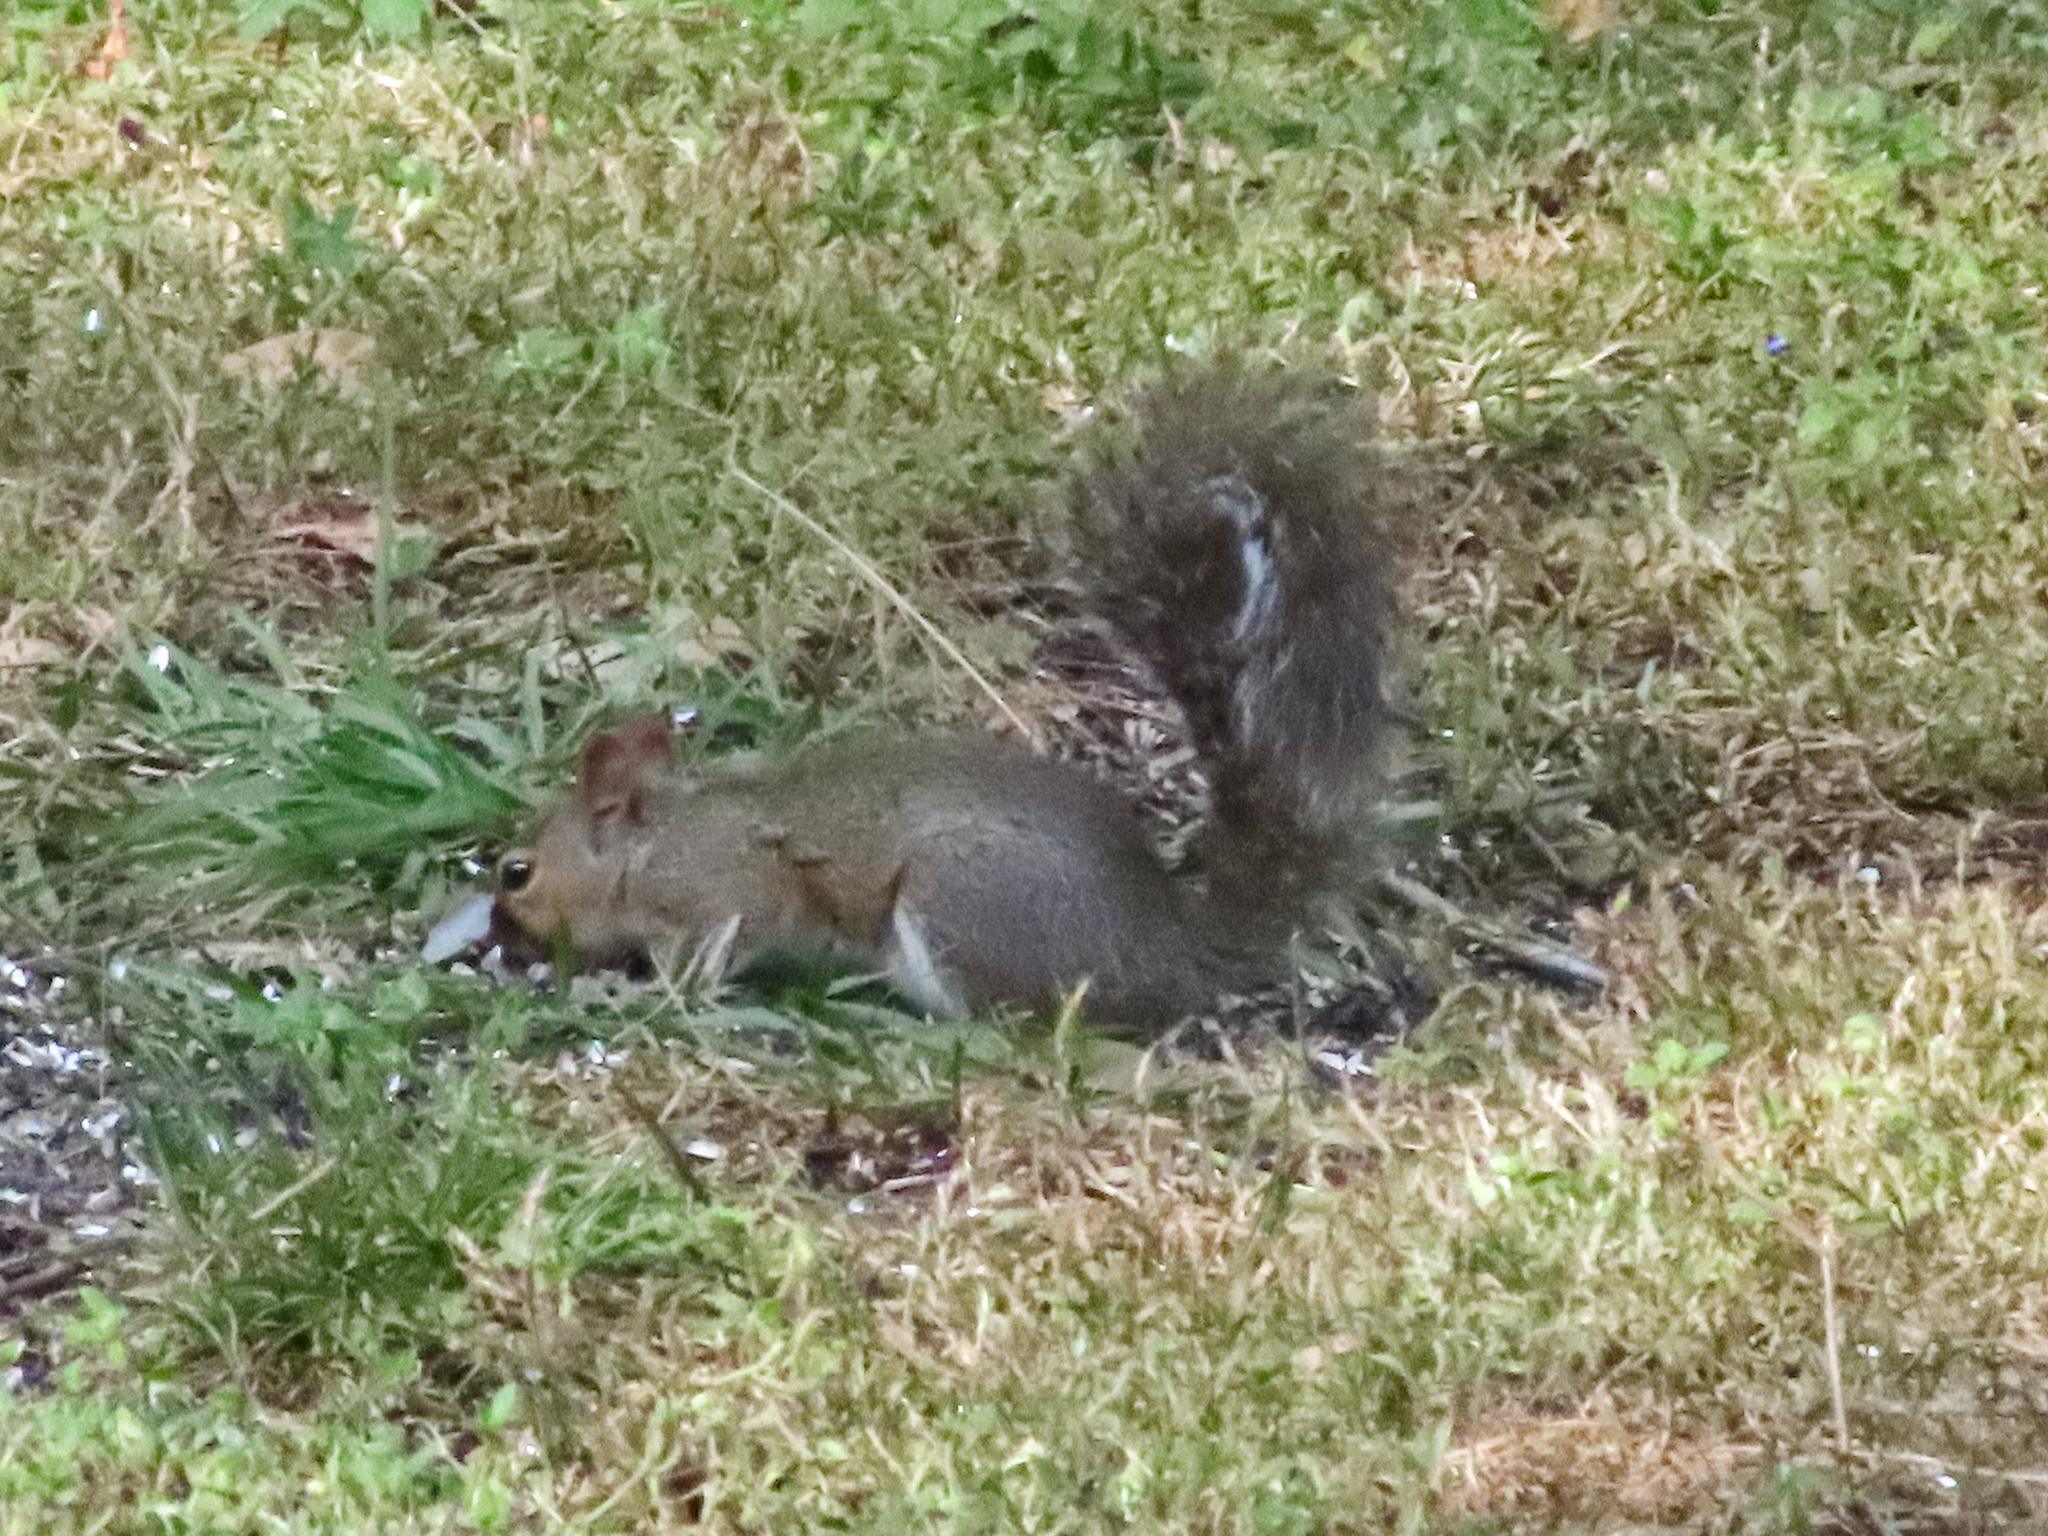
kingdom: Animalia
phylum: Chordata
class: Mammalia
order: Rodentia
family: Sciuridae
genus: Sciurus
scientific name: Sciurus carolinensis
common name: Eastern gray squirrel
